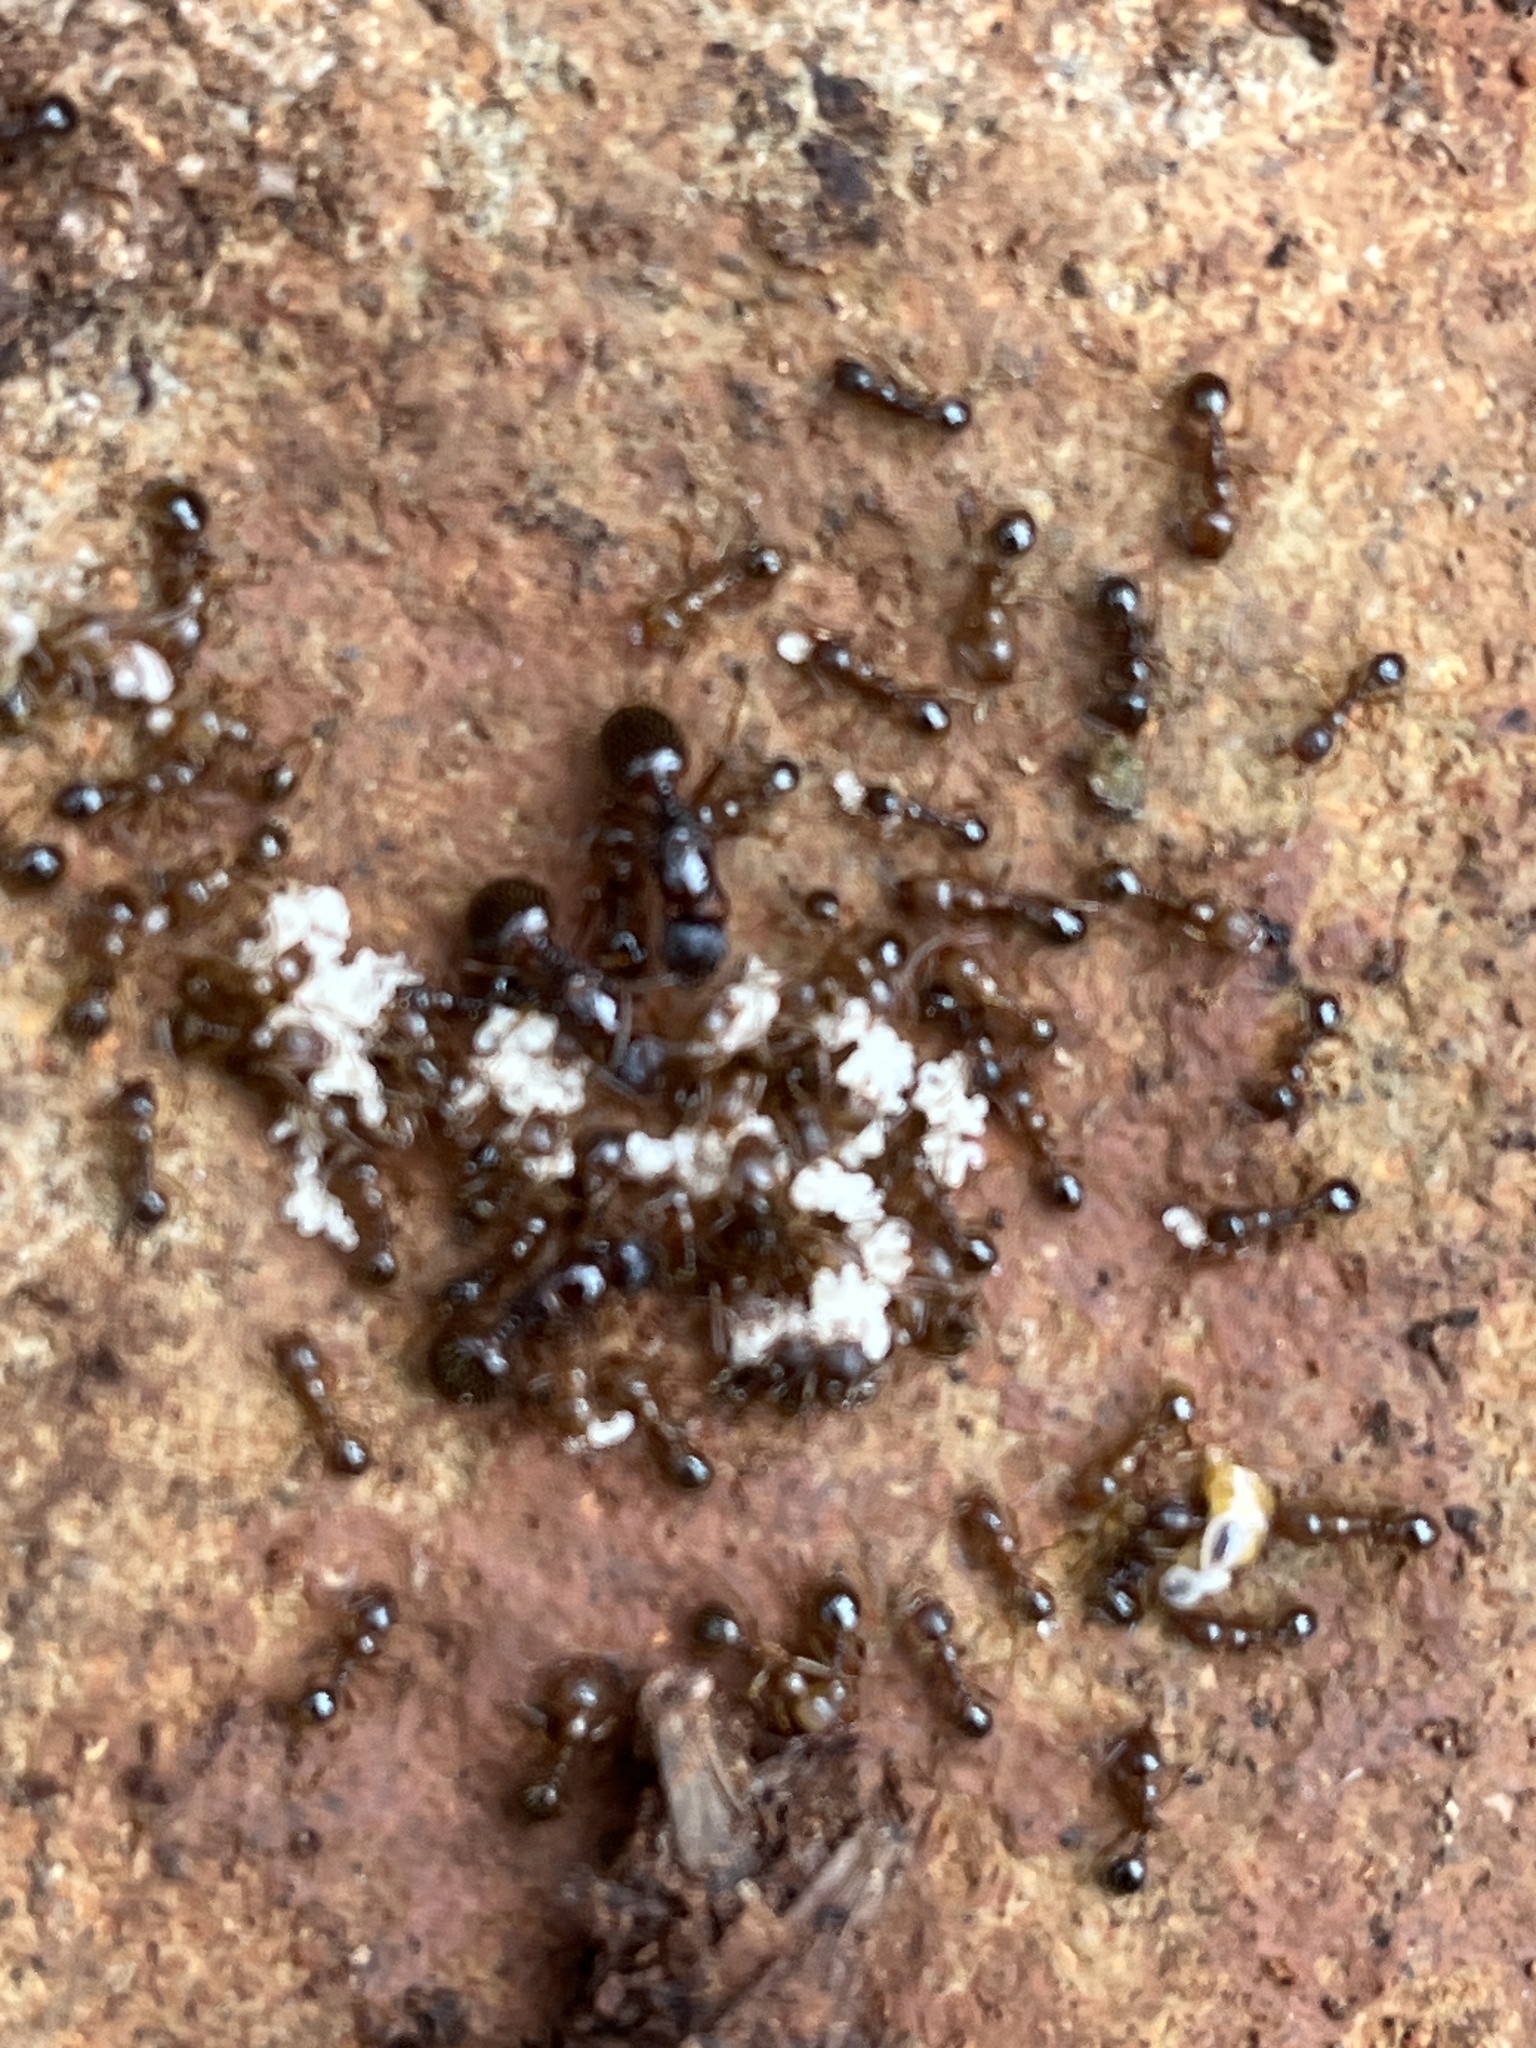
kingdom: Animalia
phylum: Arthropoda
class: Insecta
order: Hymenoptera
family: Formicidae
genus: Aphaenogaster
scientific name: Aphaenogaster occidentalis
